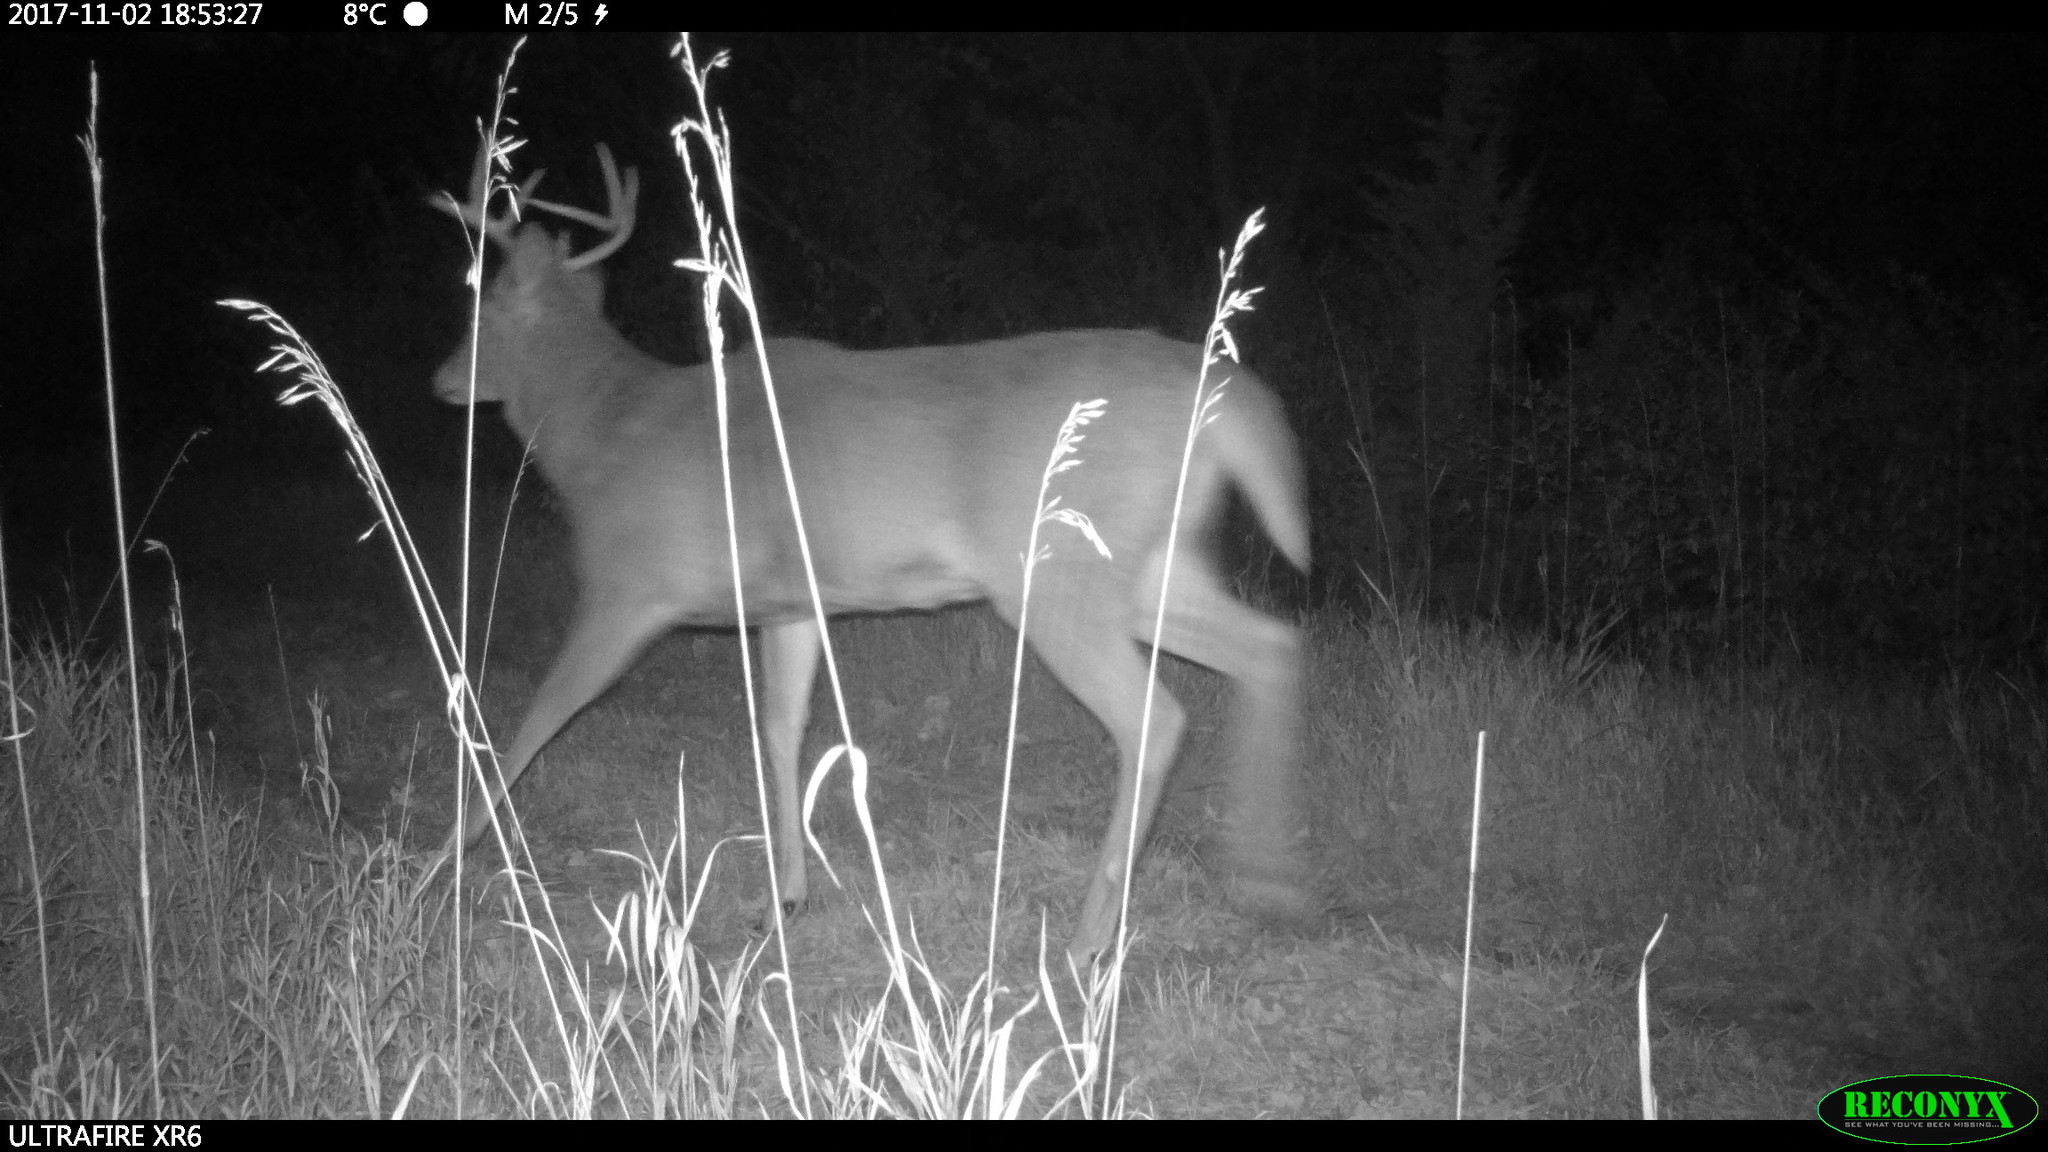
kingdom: Animalia
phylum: Chordata
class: Mammalia
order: Artiodactyla
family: Cervidae
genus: Odocoileus
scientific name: Odocoileus virginianus
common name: White-tailed deer
